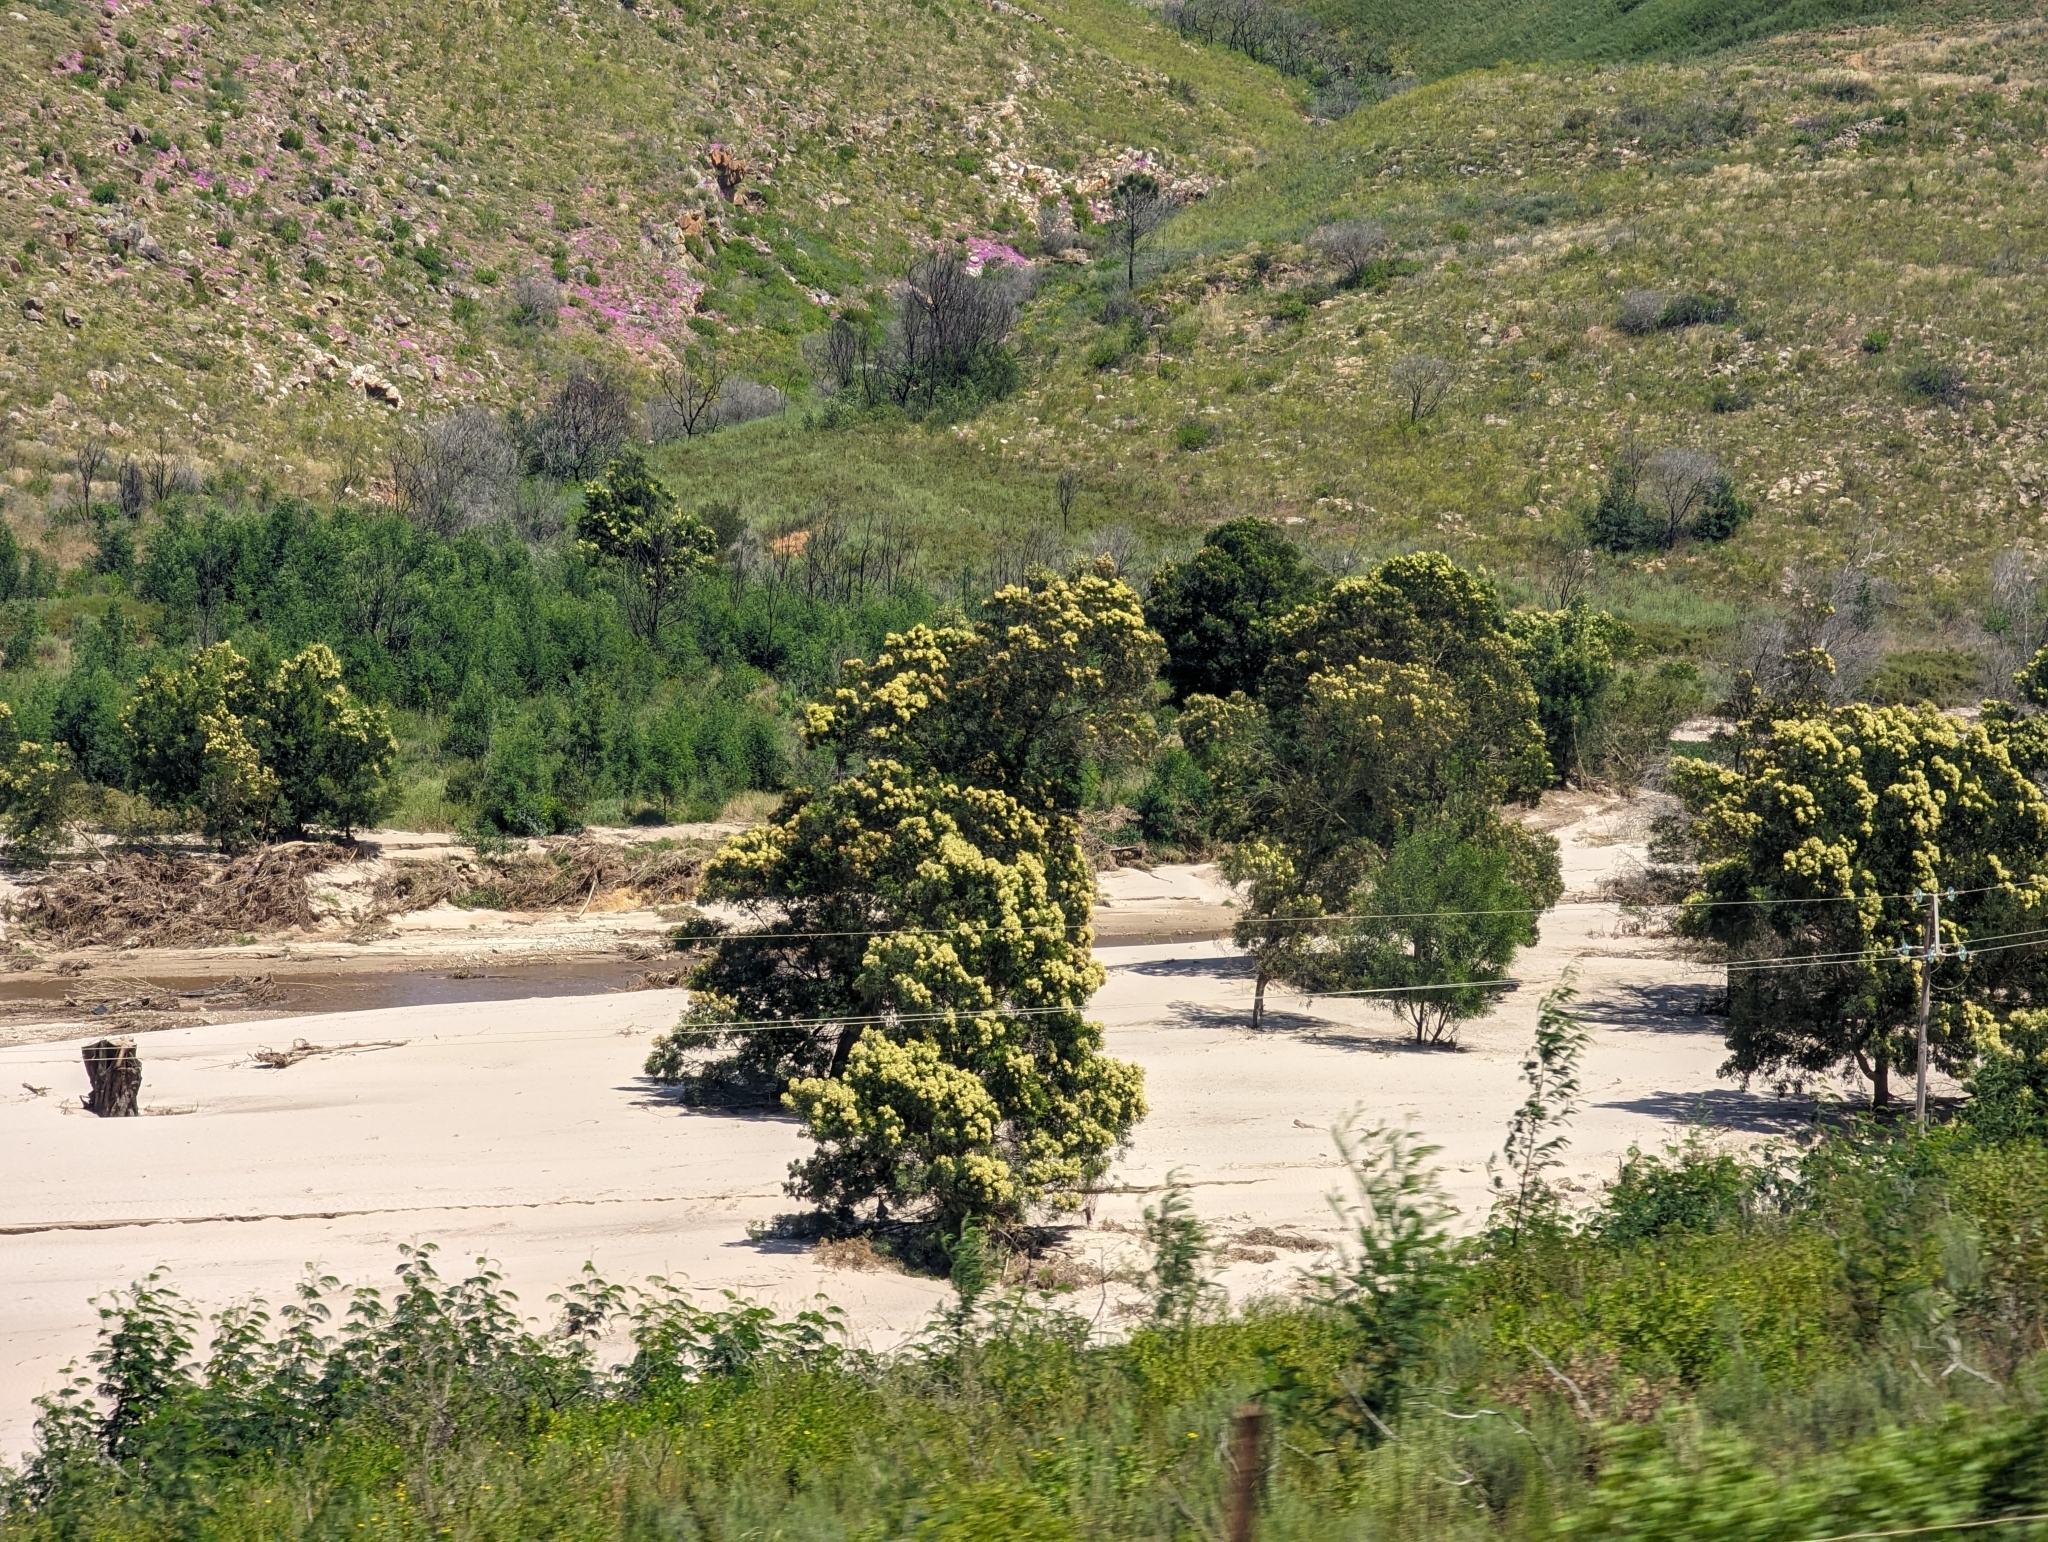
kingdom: Plantae
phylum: Tracheophyta
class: Magnoliopsida
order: Fabales
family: Fabaceae
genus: Acacia
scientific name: Acacia mearnsii
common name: Black wattle
